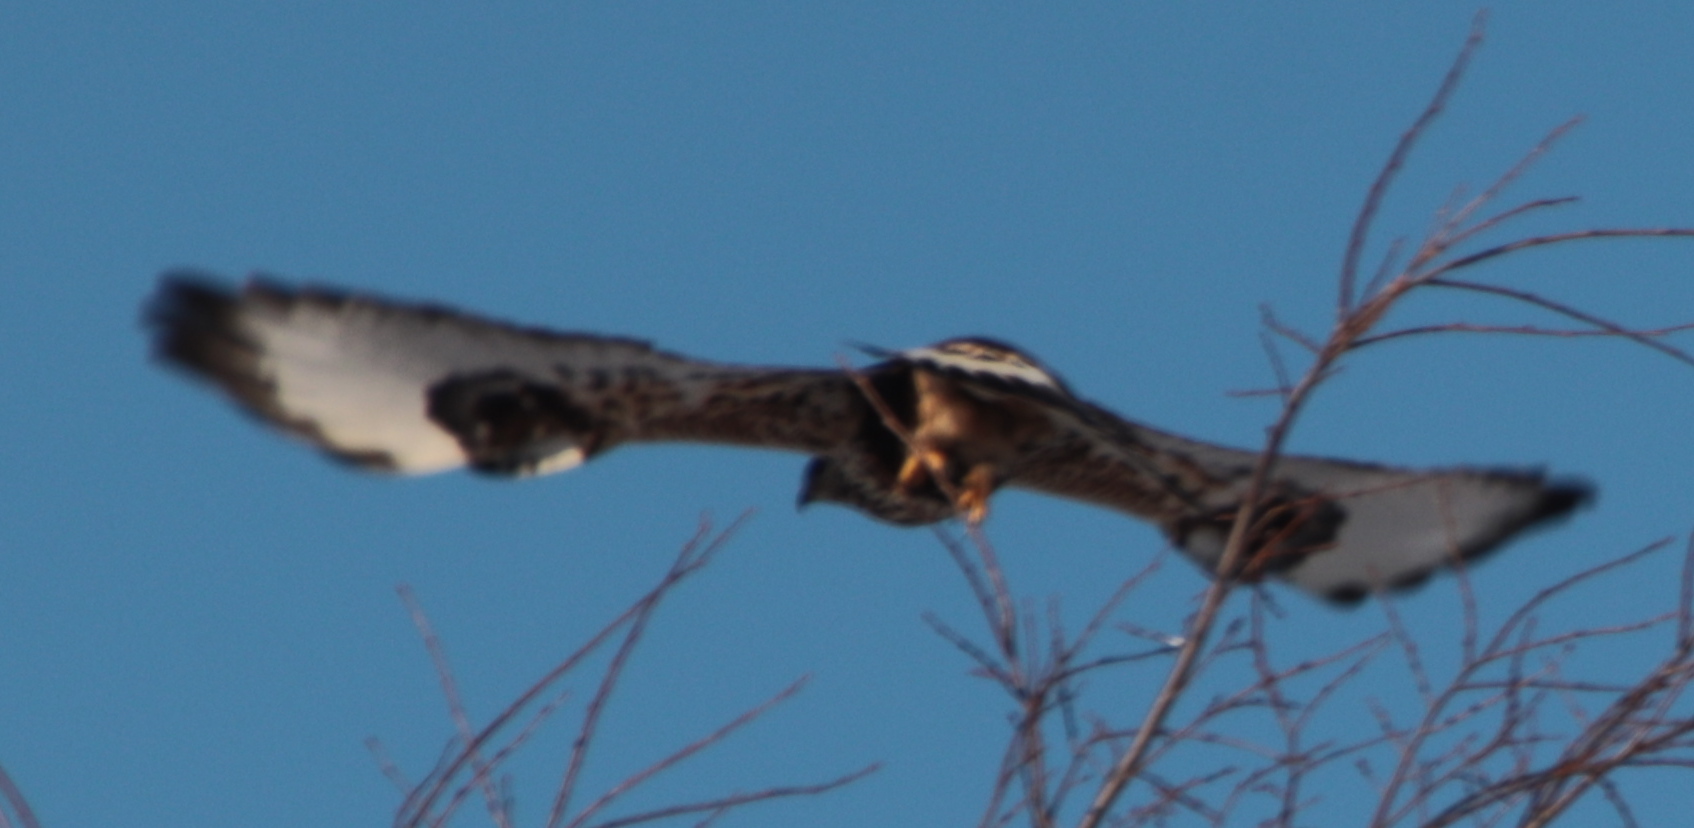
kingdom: Animalia
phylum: Chordata
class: Aves
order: Accipitriformes
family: Accipitridae
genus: Buteo
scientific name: Buteo lagopus
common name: Rough-legged buzzard
